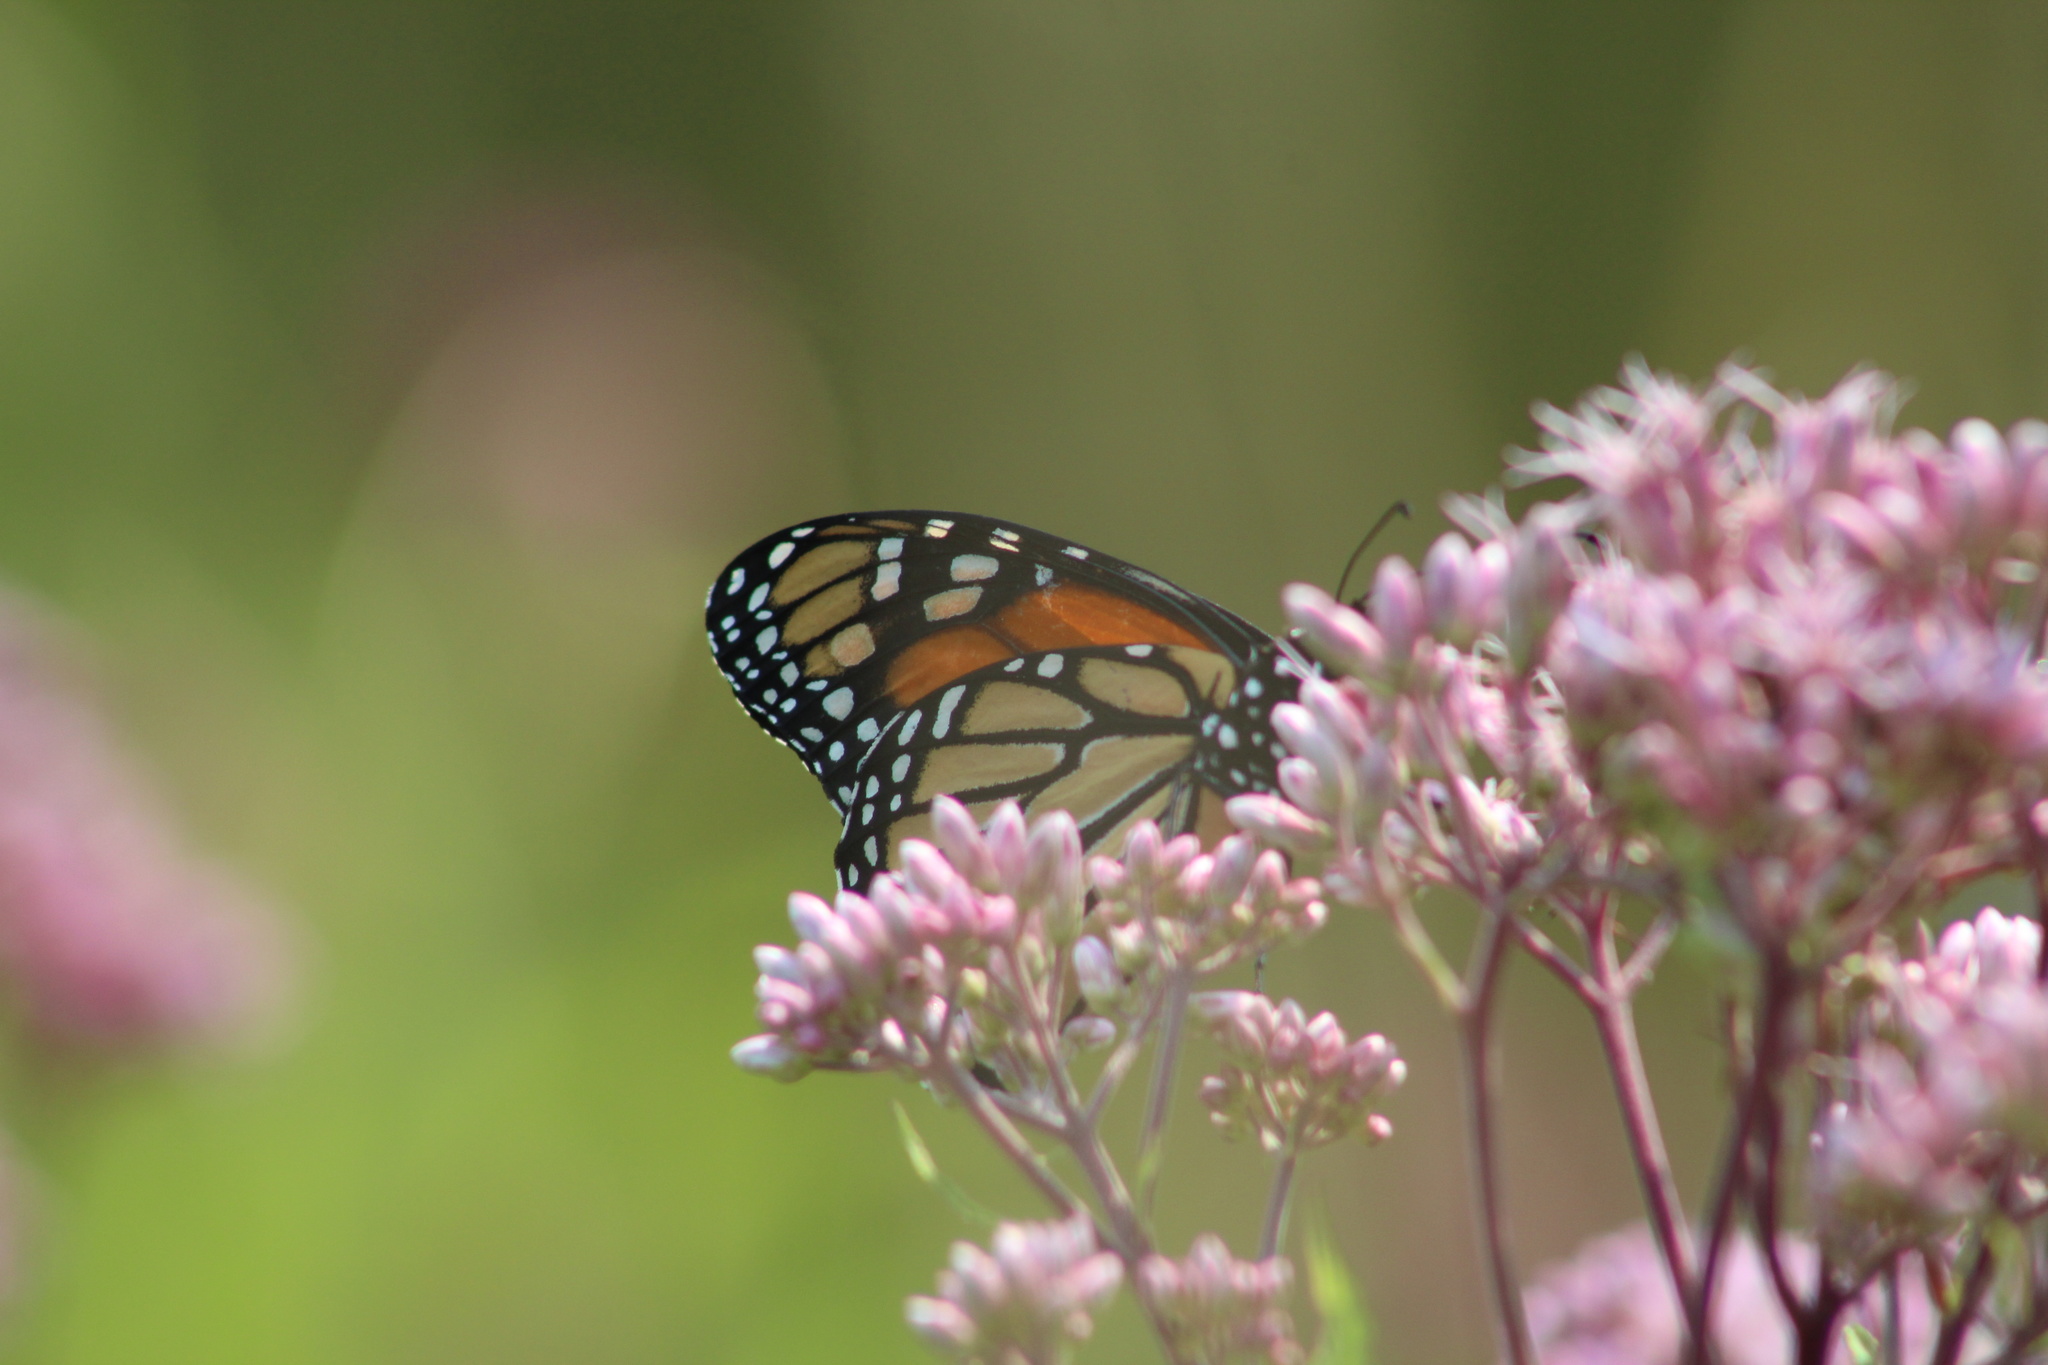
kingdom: Animalia
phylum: Arthropoda
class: Insecta
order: Lepidoptera
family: Nymphalidae
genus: Danaus
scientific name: Danaus plexippus
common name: Monarch
